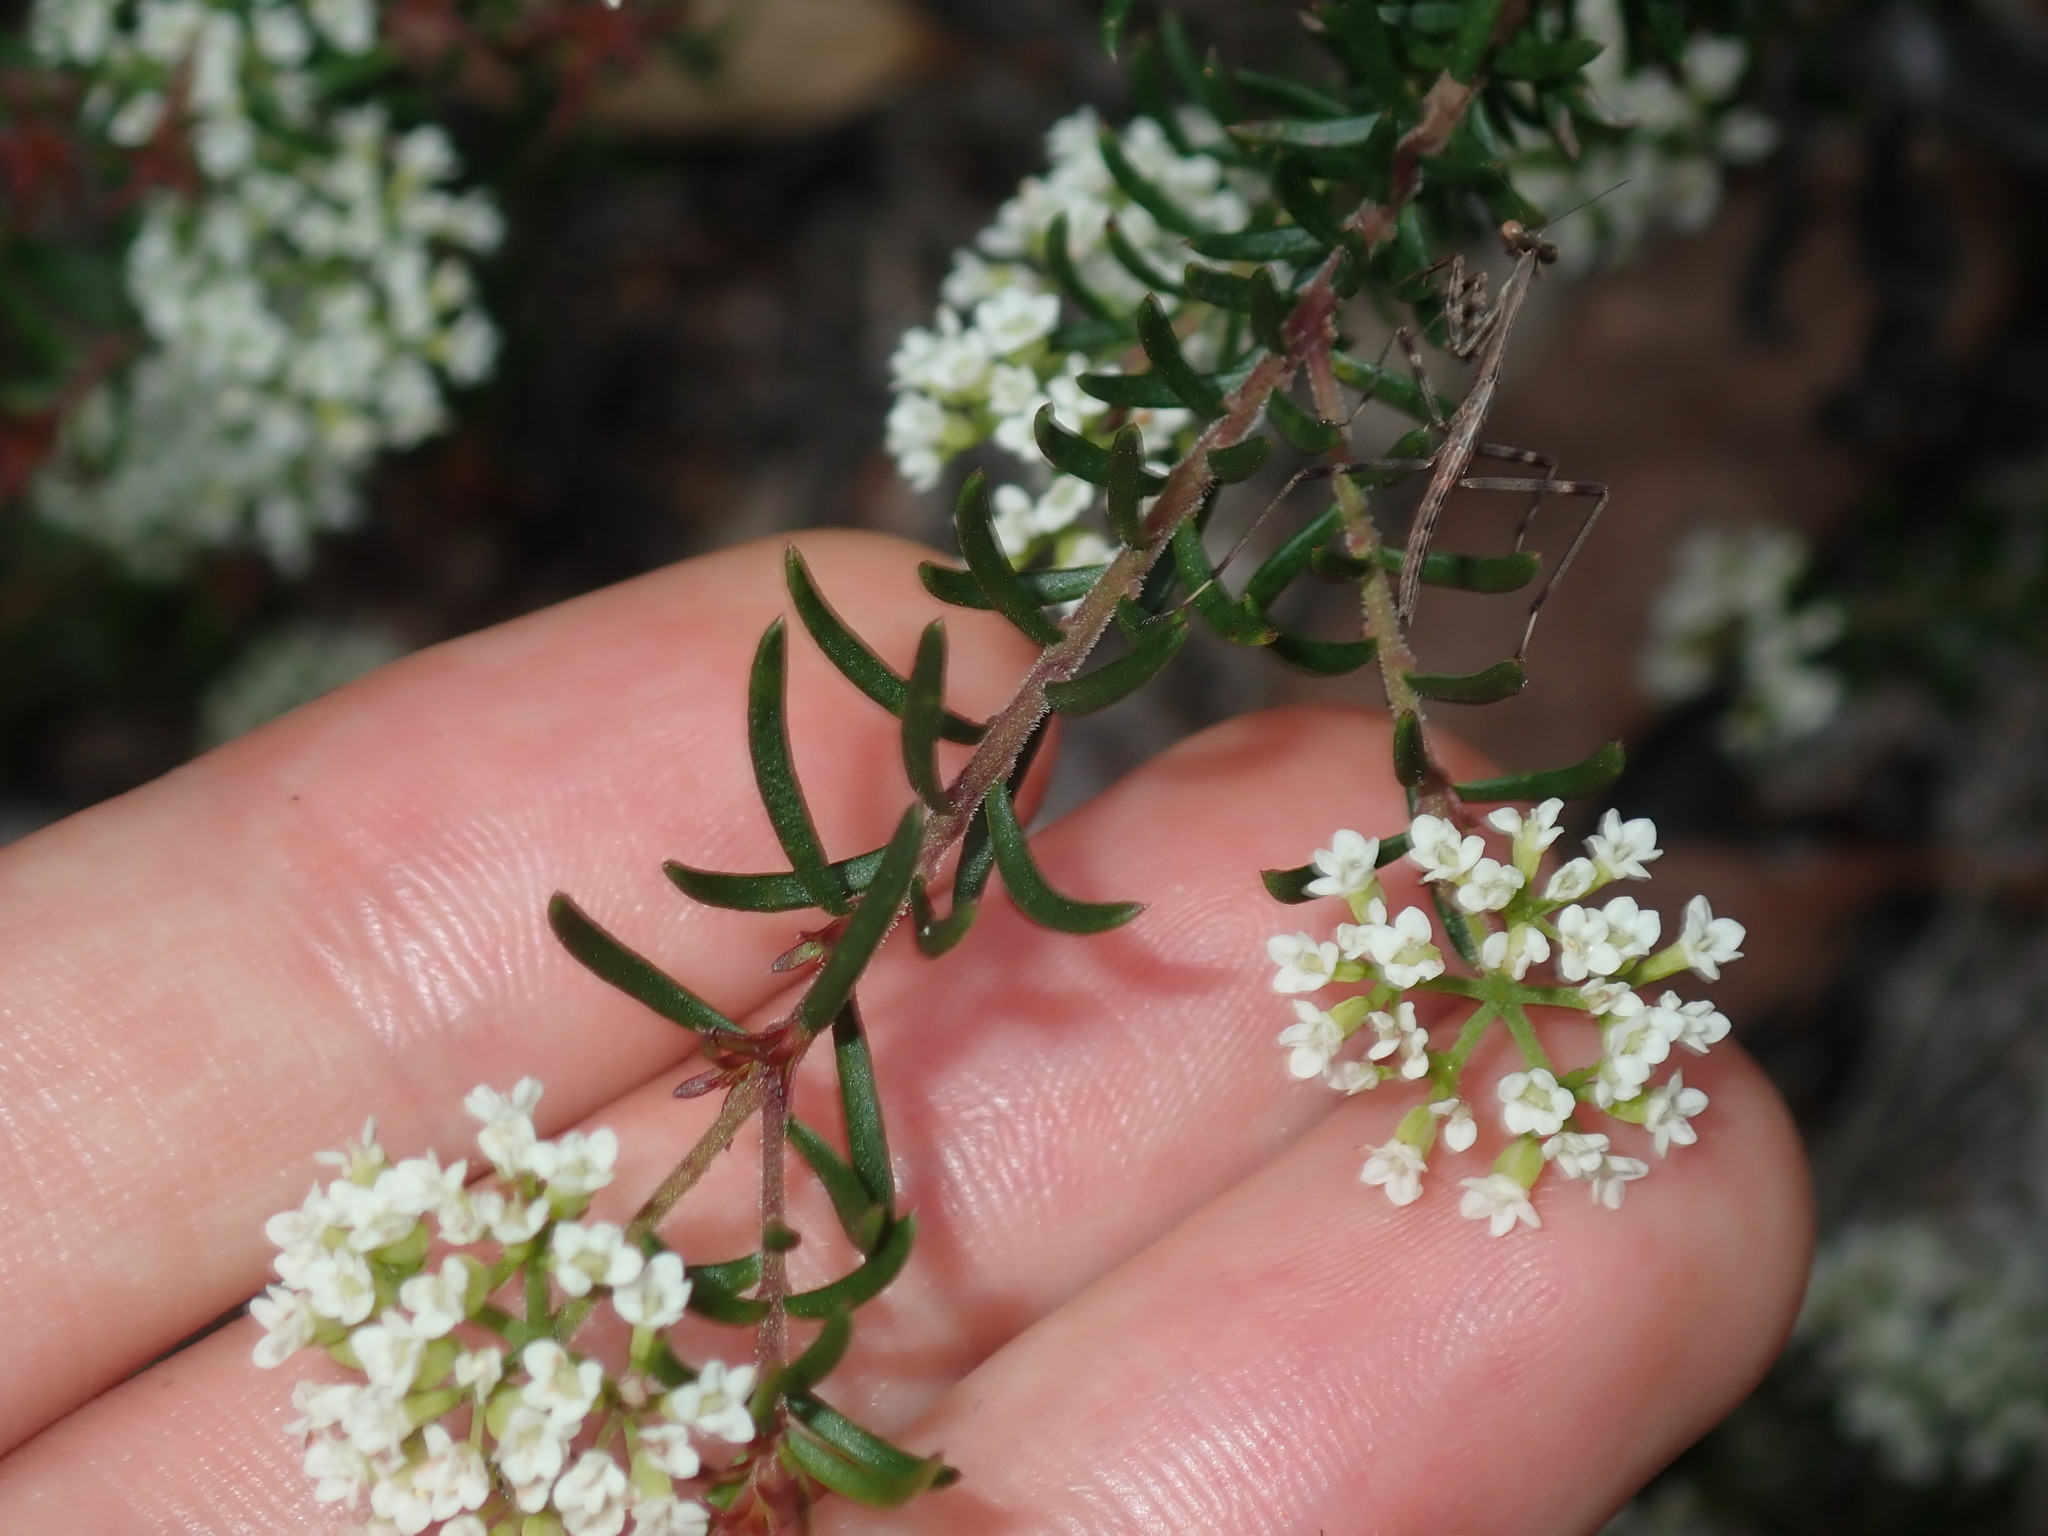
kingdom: Plantae
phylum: Tracheophyta
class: Magnoliopsida
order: Apiales
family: Apiaceae
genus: Platysace
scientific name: Platysace ericoides
